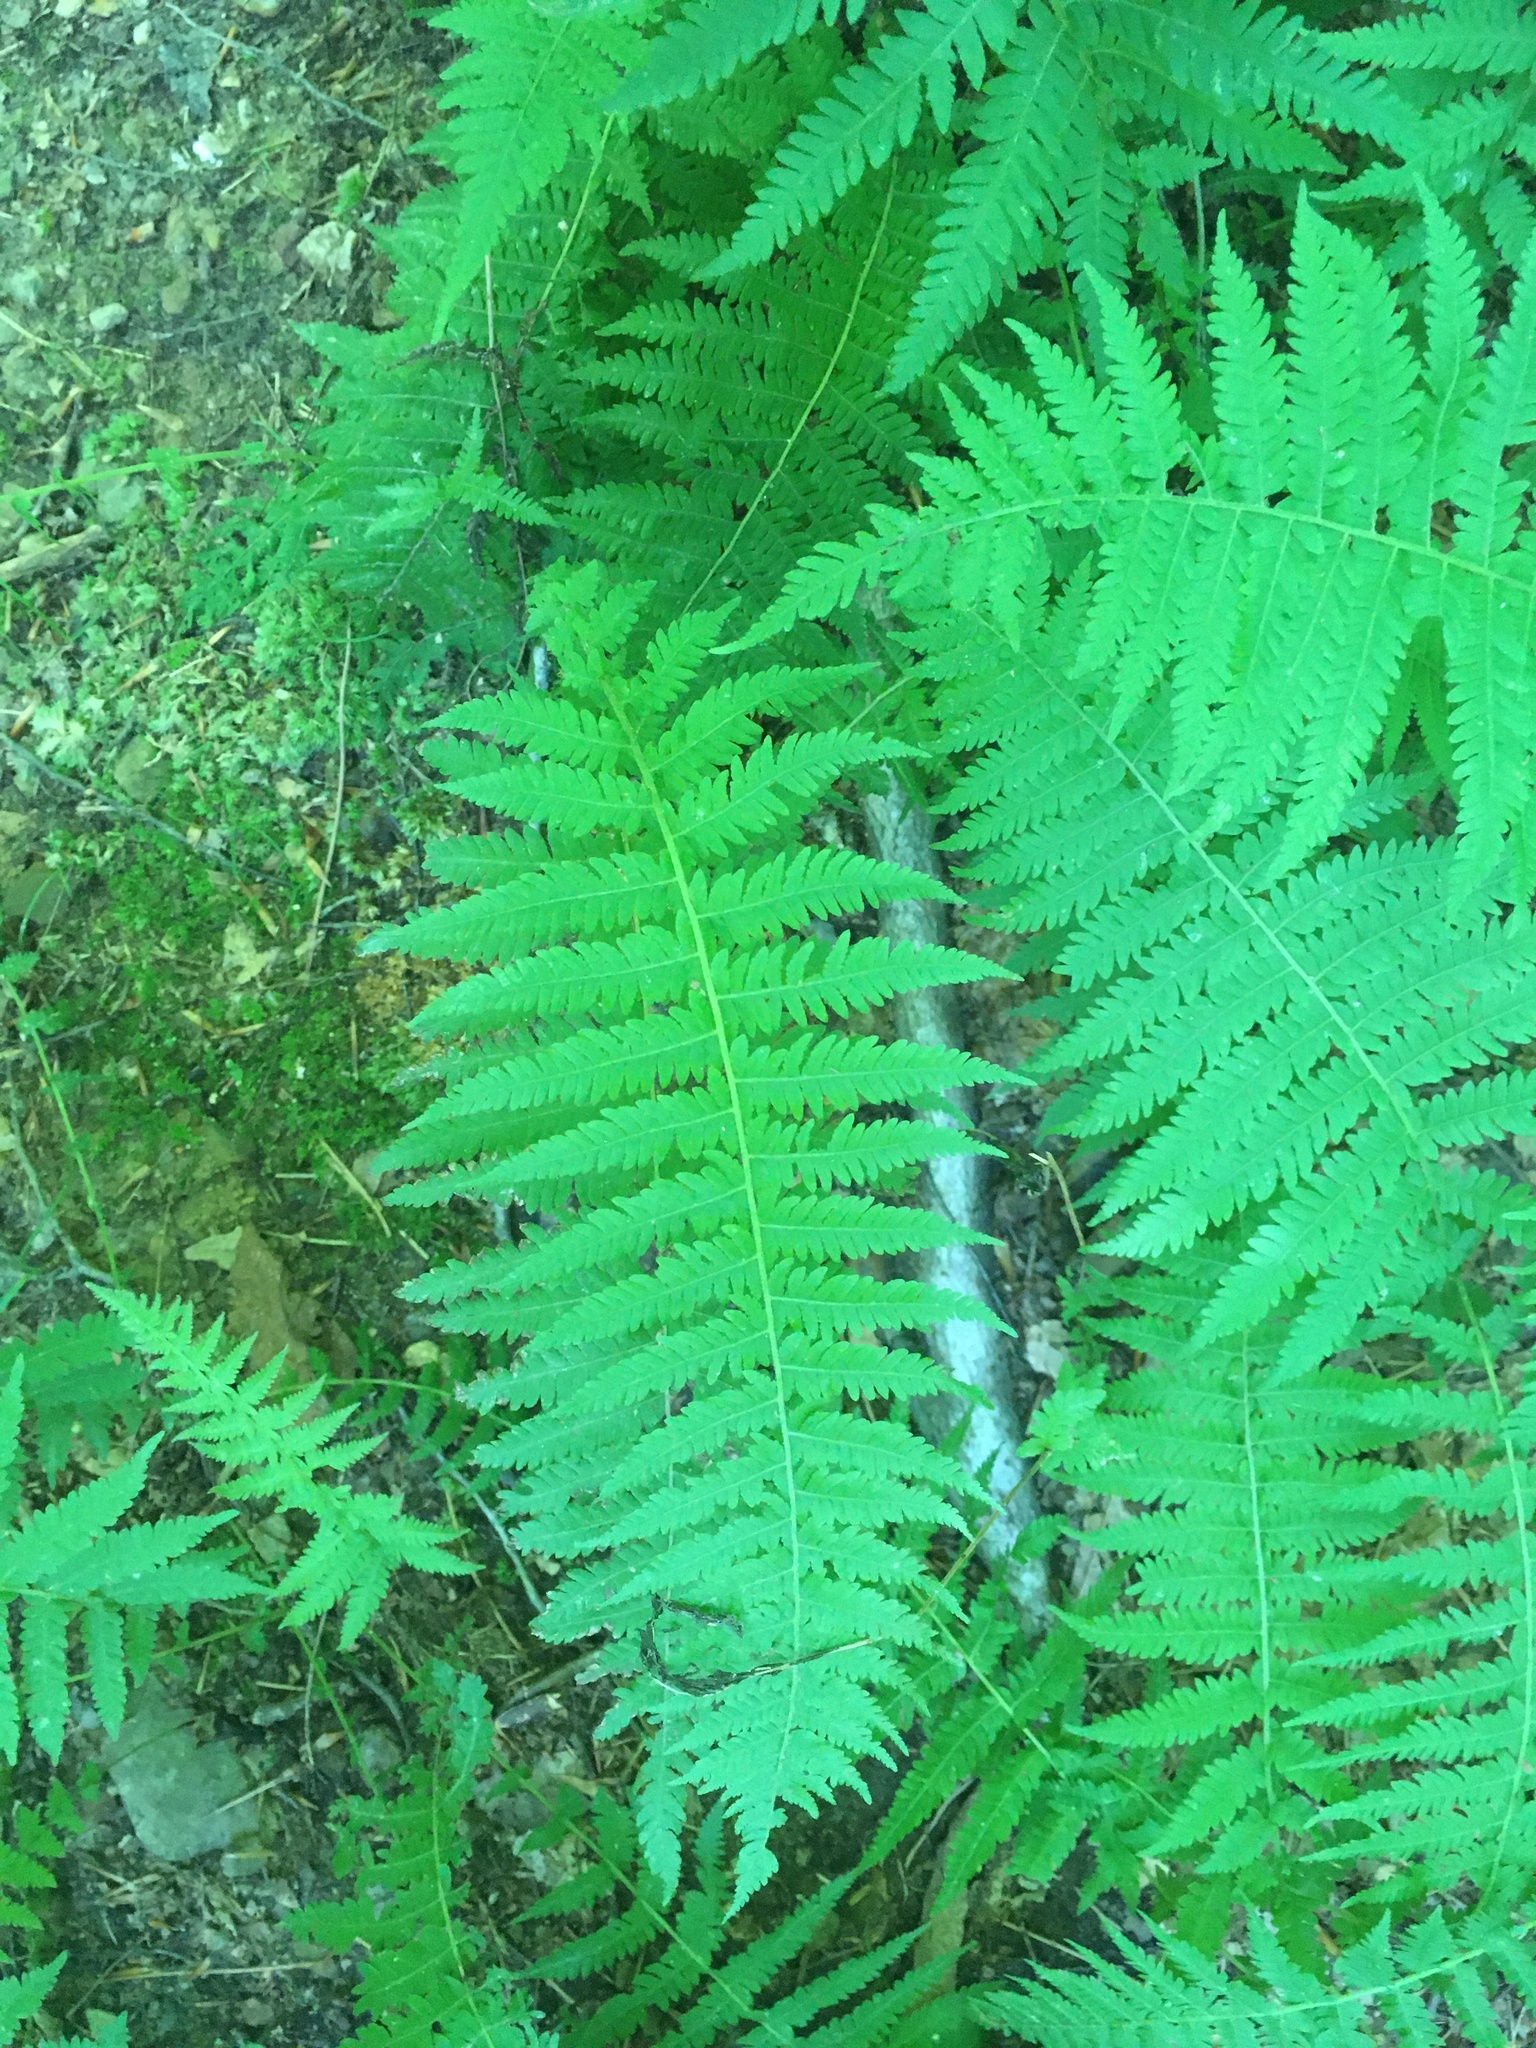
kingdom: Plantae
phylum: Tracheophyta
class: Polypodiopsida
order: Polypodiales
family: Thelypteridaceae
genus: Amauropelta
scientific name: Amauropelta noveboracensis
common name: New york fern
